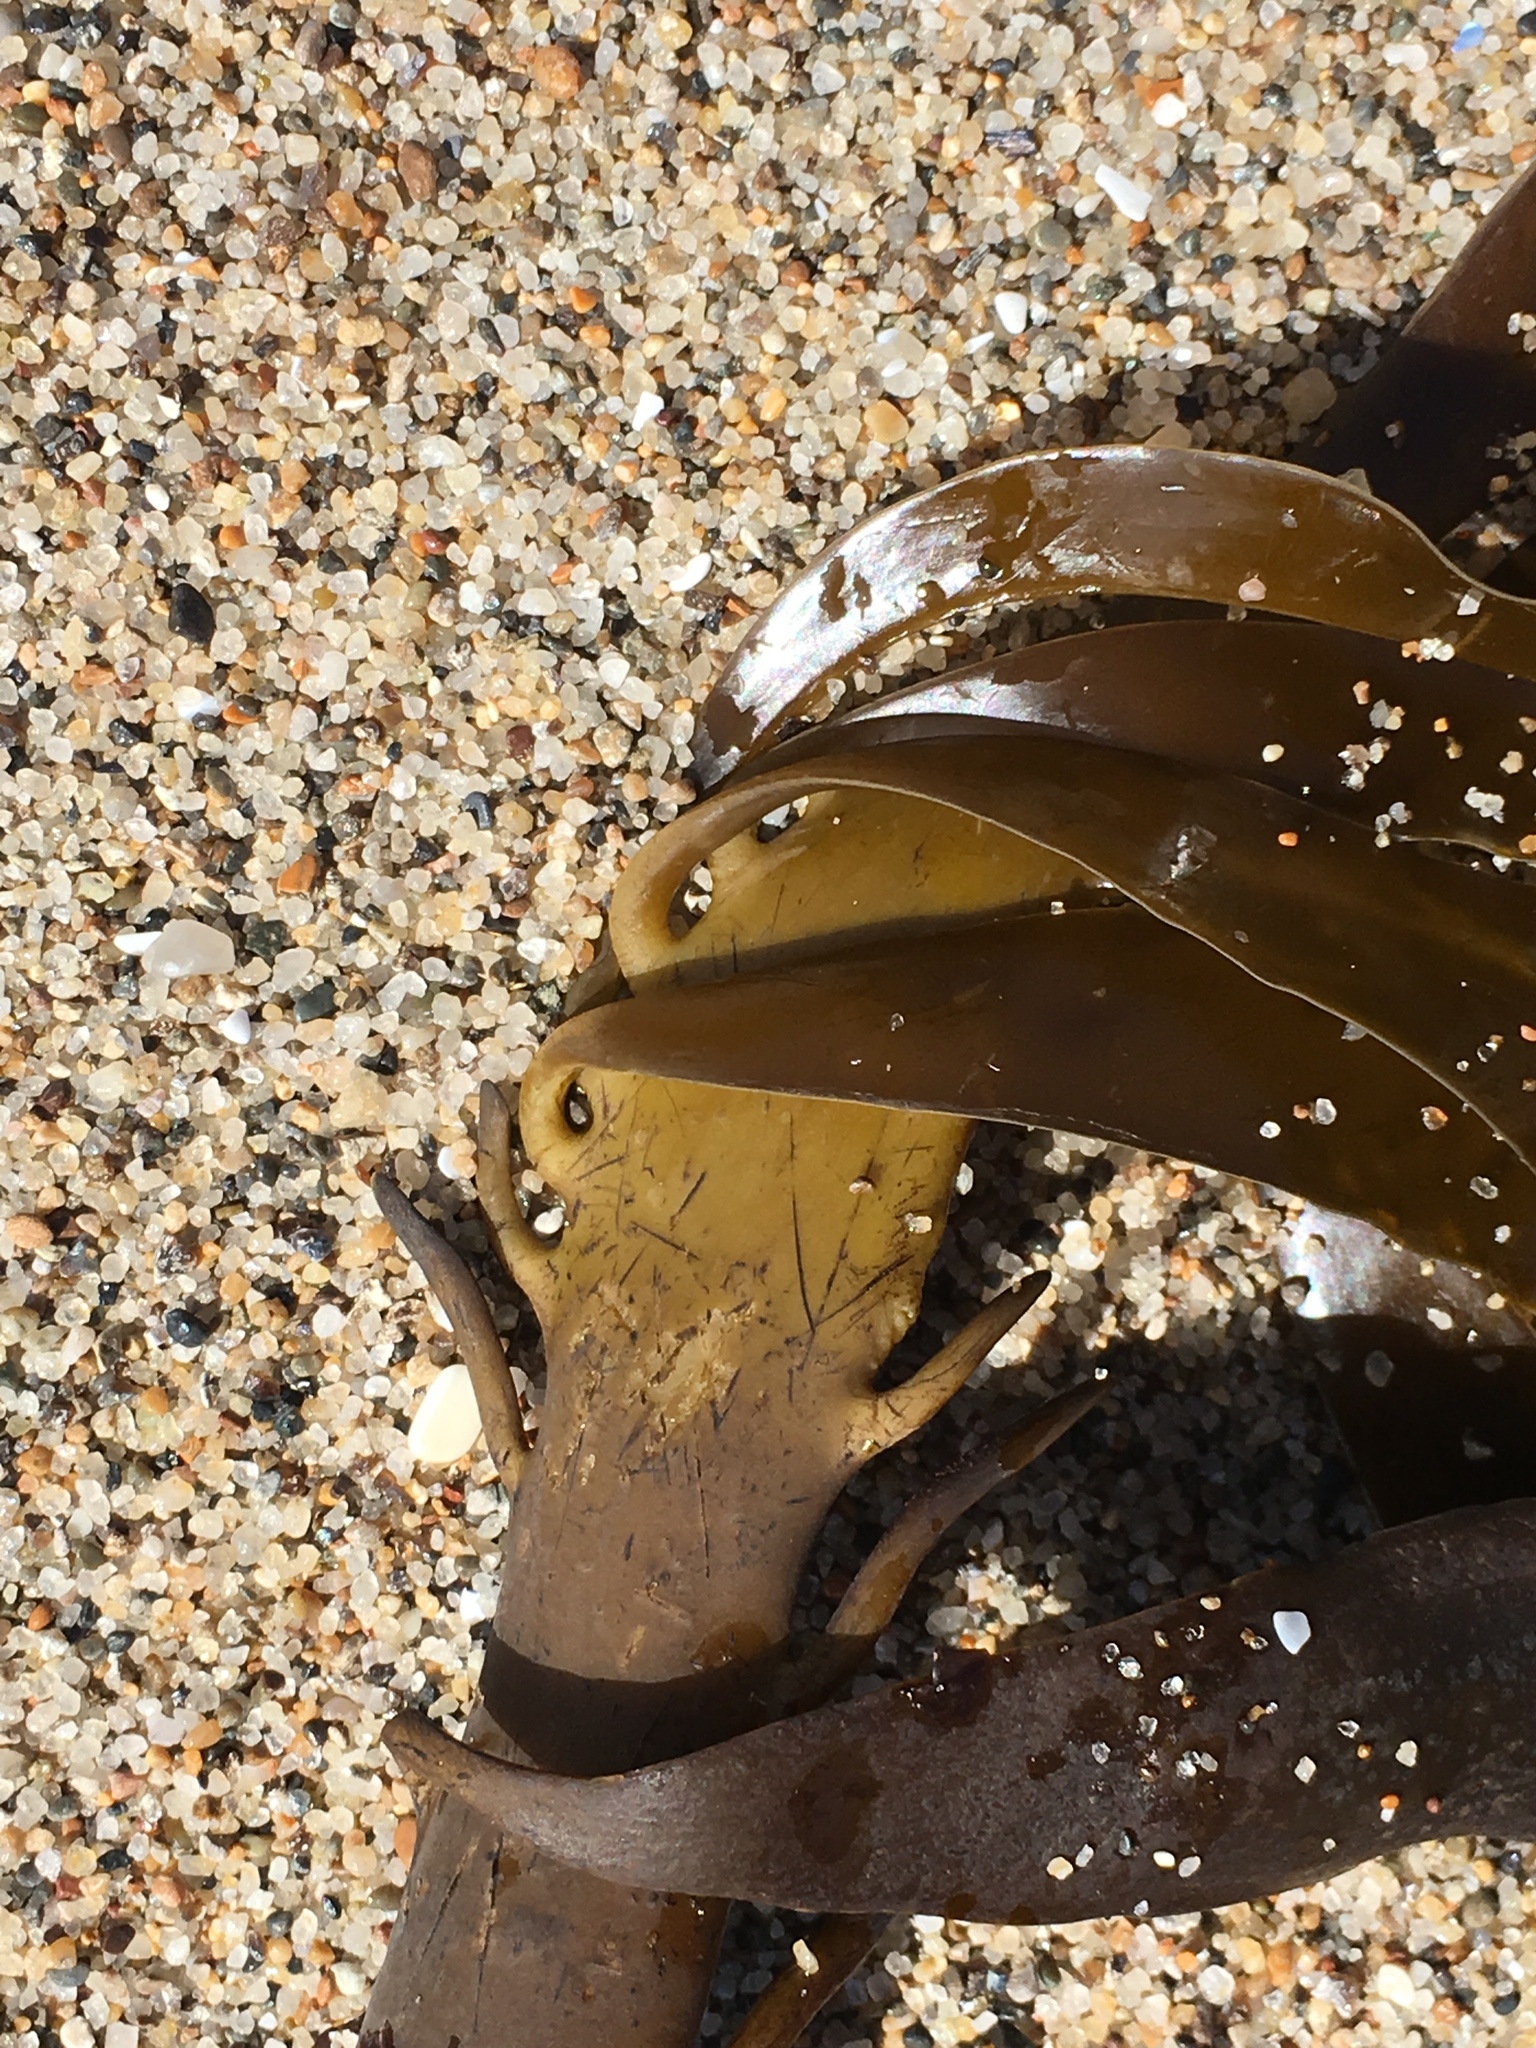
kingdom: Chromista
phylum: Ochrophyta
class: Phaeophyceae
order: Laminariales
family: Alariaceae
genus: Pterygophora
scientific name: Pterygophora californica
